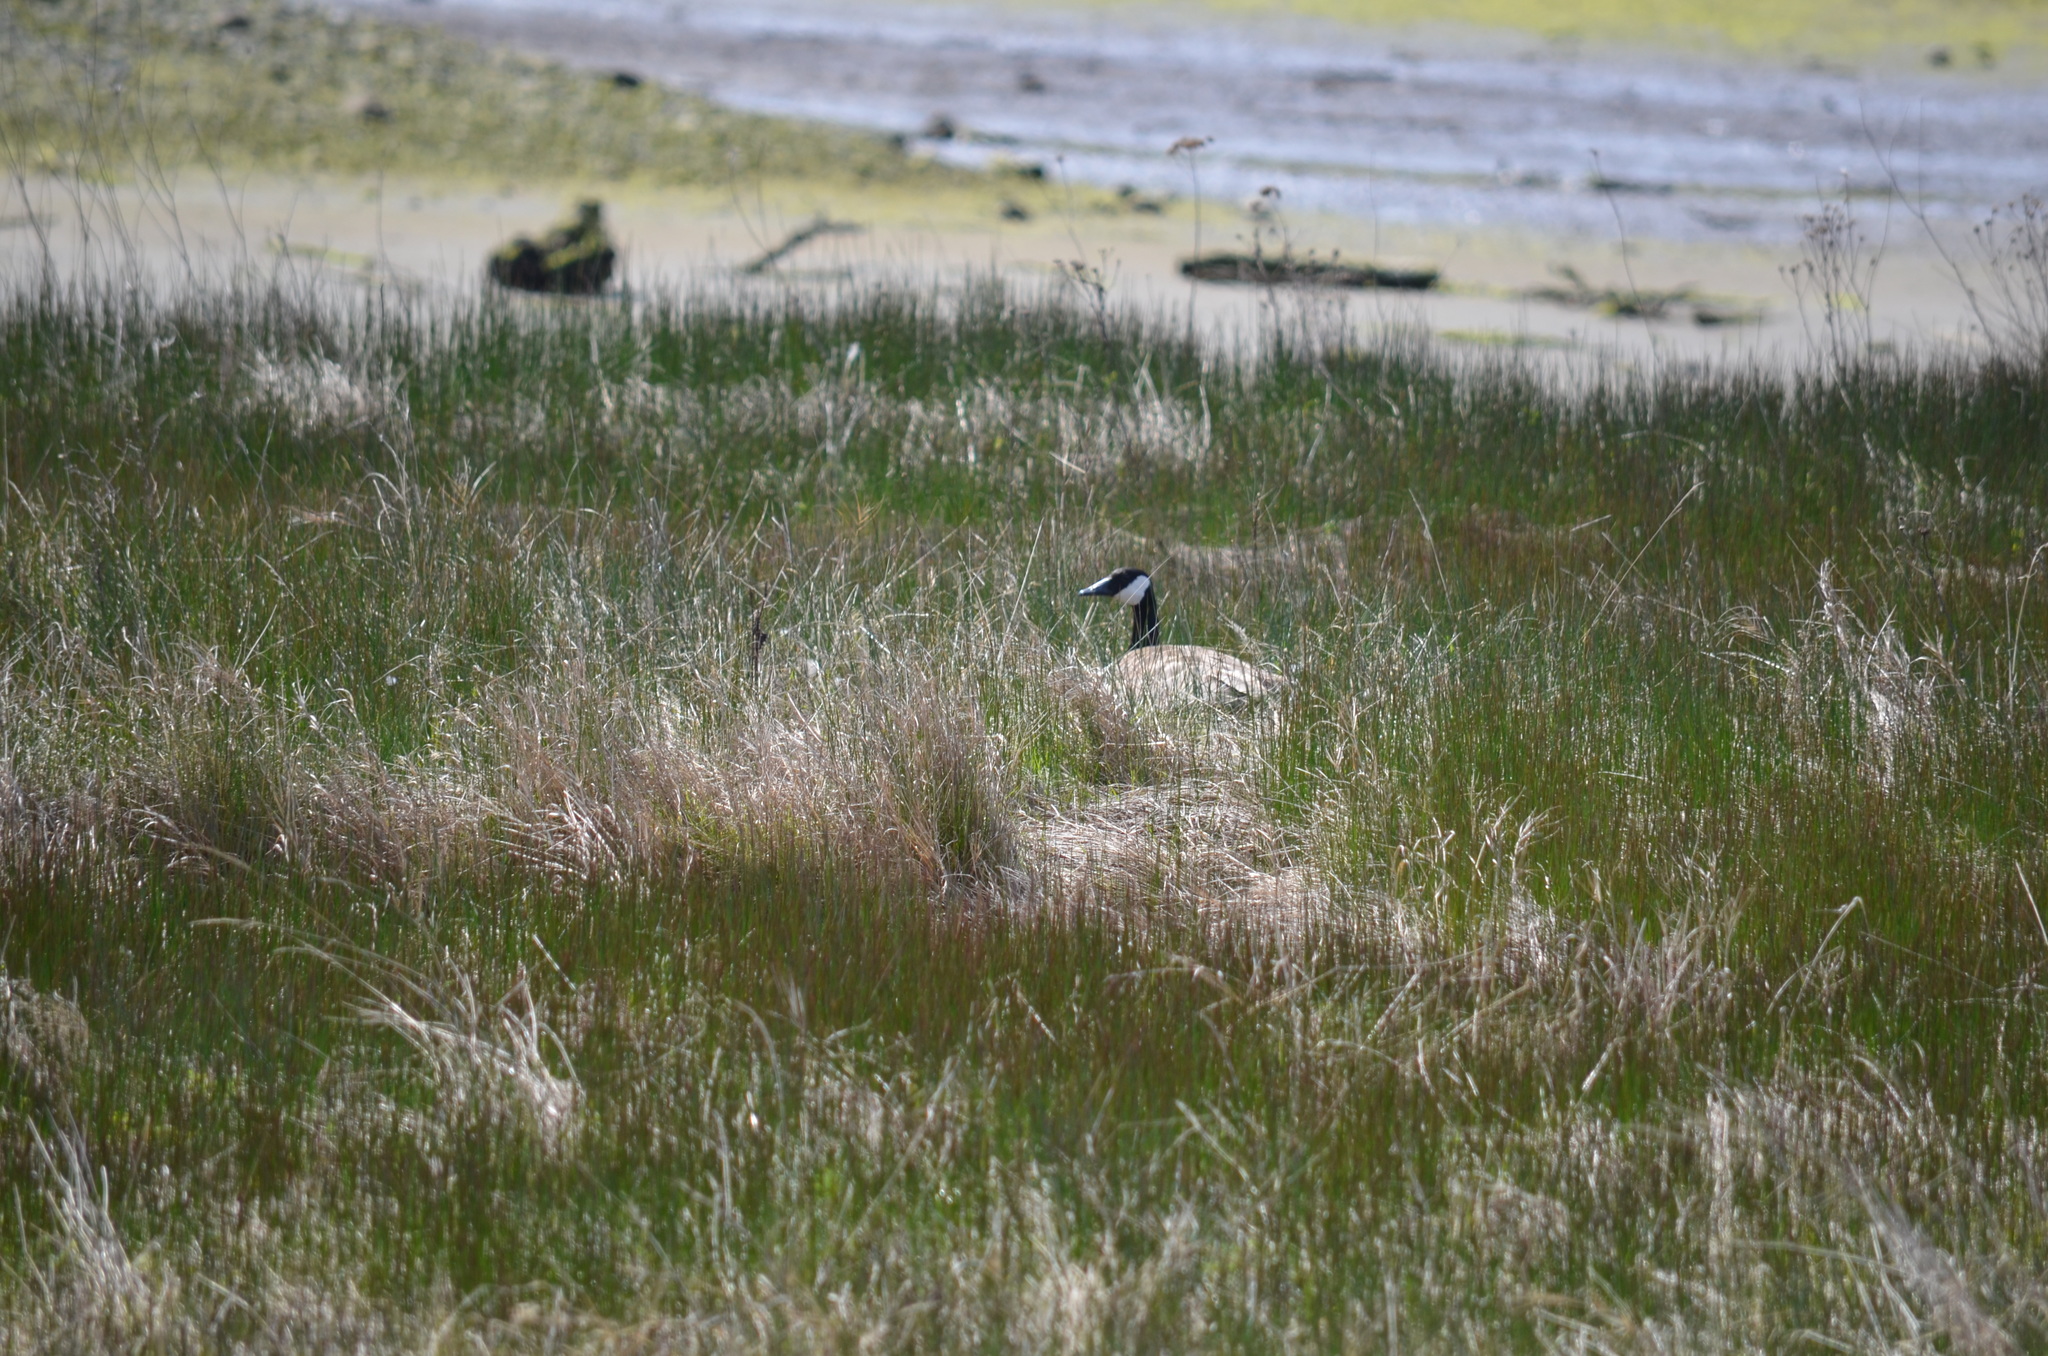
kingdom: Animalia
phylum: Chordata
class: Aves
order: Anseriformes
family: Anatidae
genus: Branta
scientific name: Branta canadensis
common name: Canada goose
